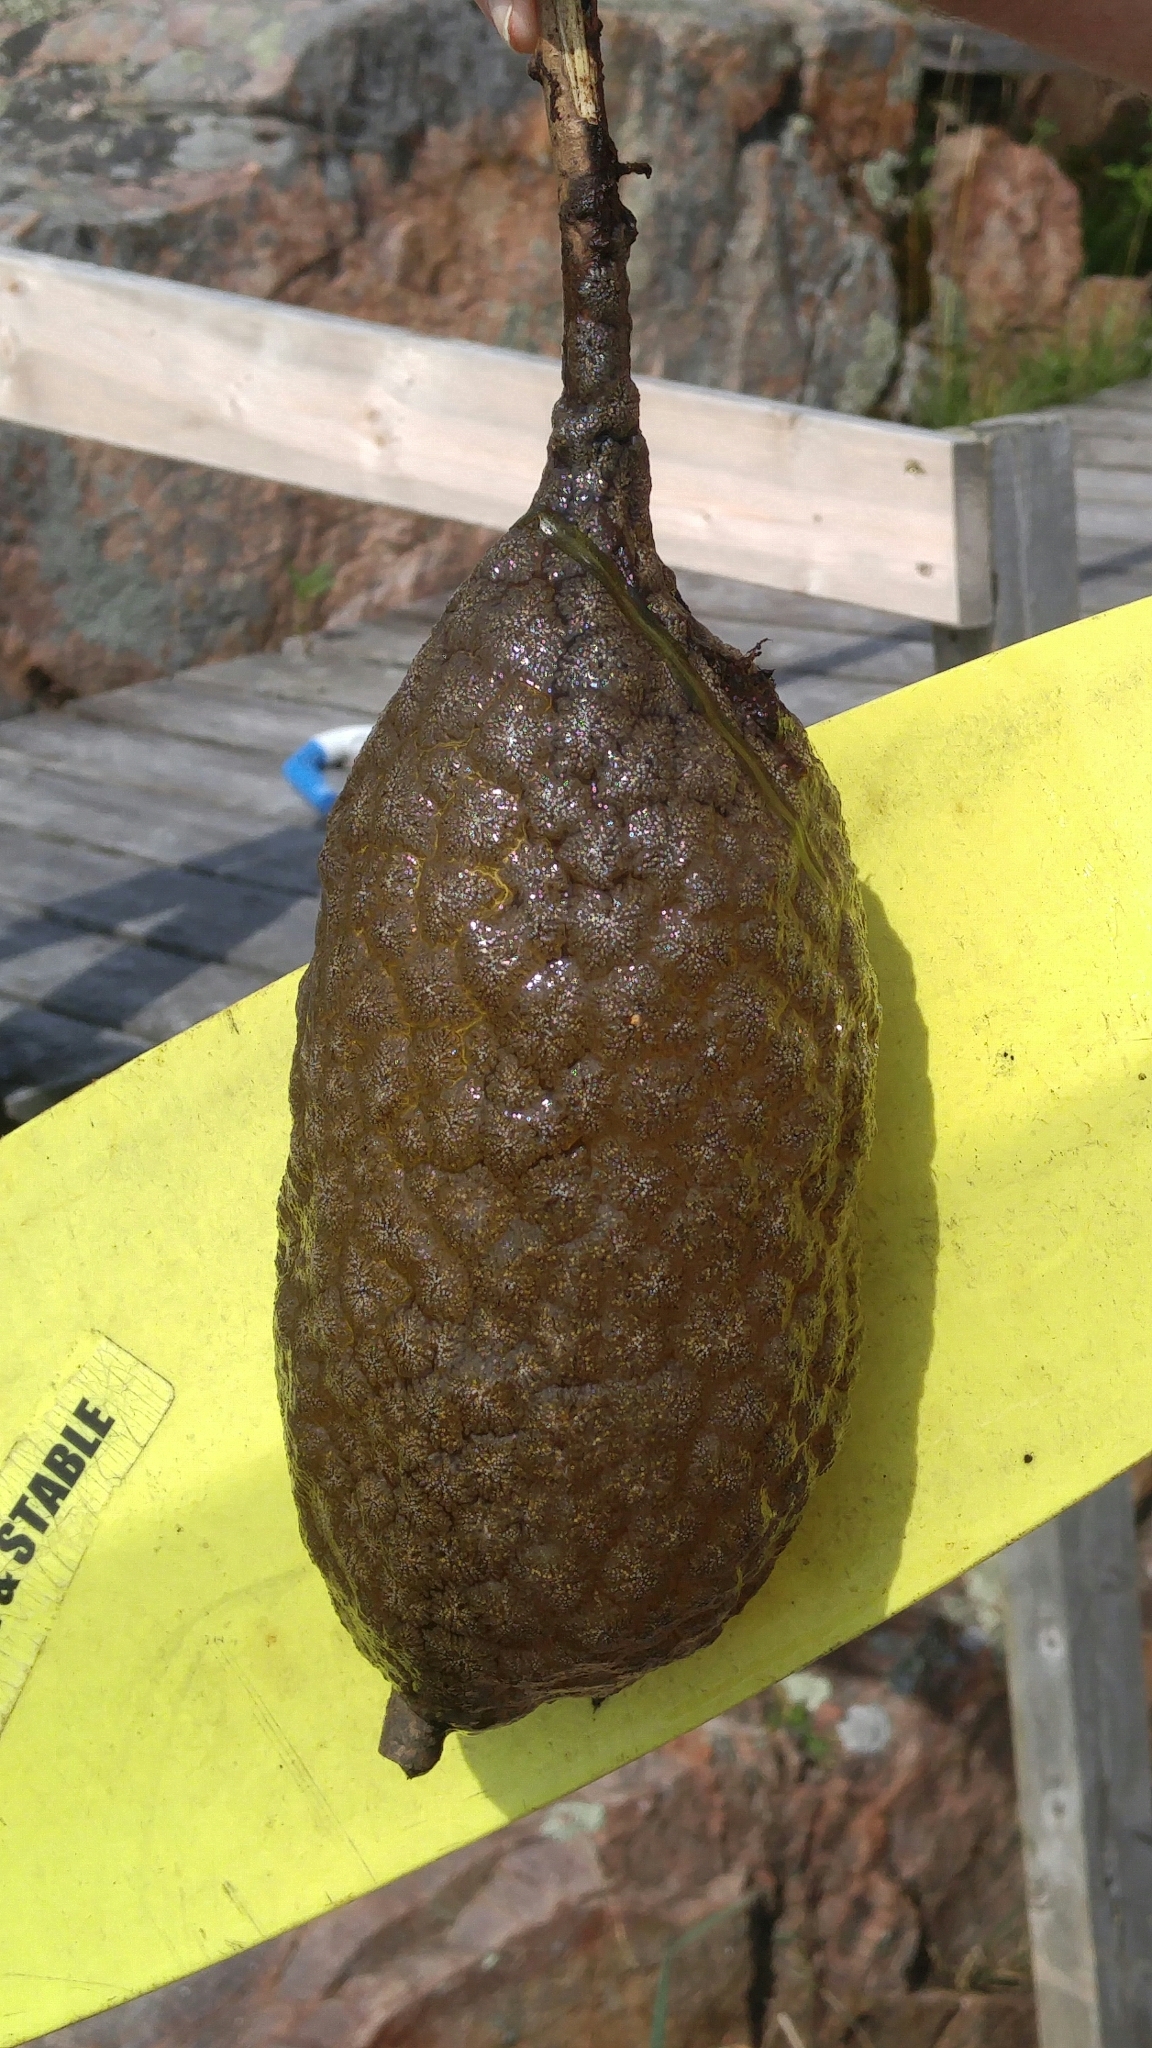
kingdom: Animalia
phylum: Bryozoa
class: Phylactolaemata
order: Plumatellida
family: Pectinatellidae
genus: Pectinatella
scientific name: Pectinatella magnifica
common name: Magnificent bryozoan
